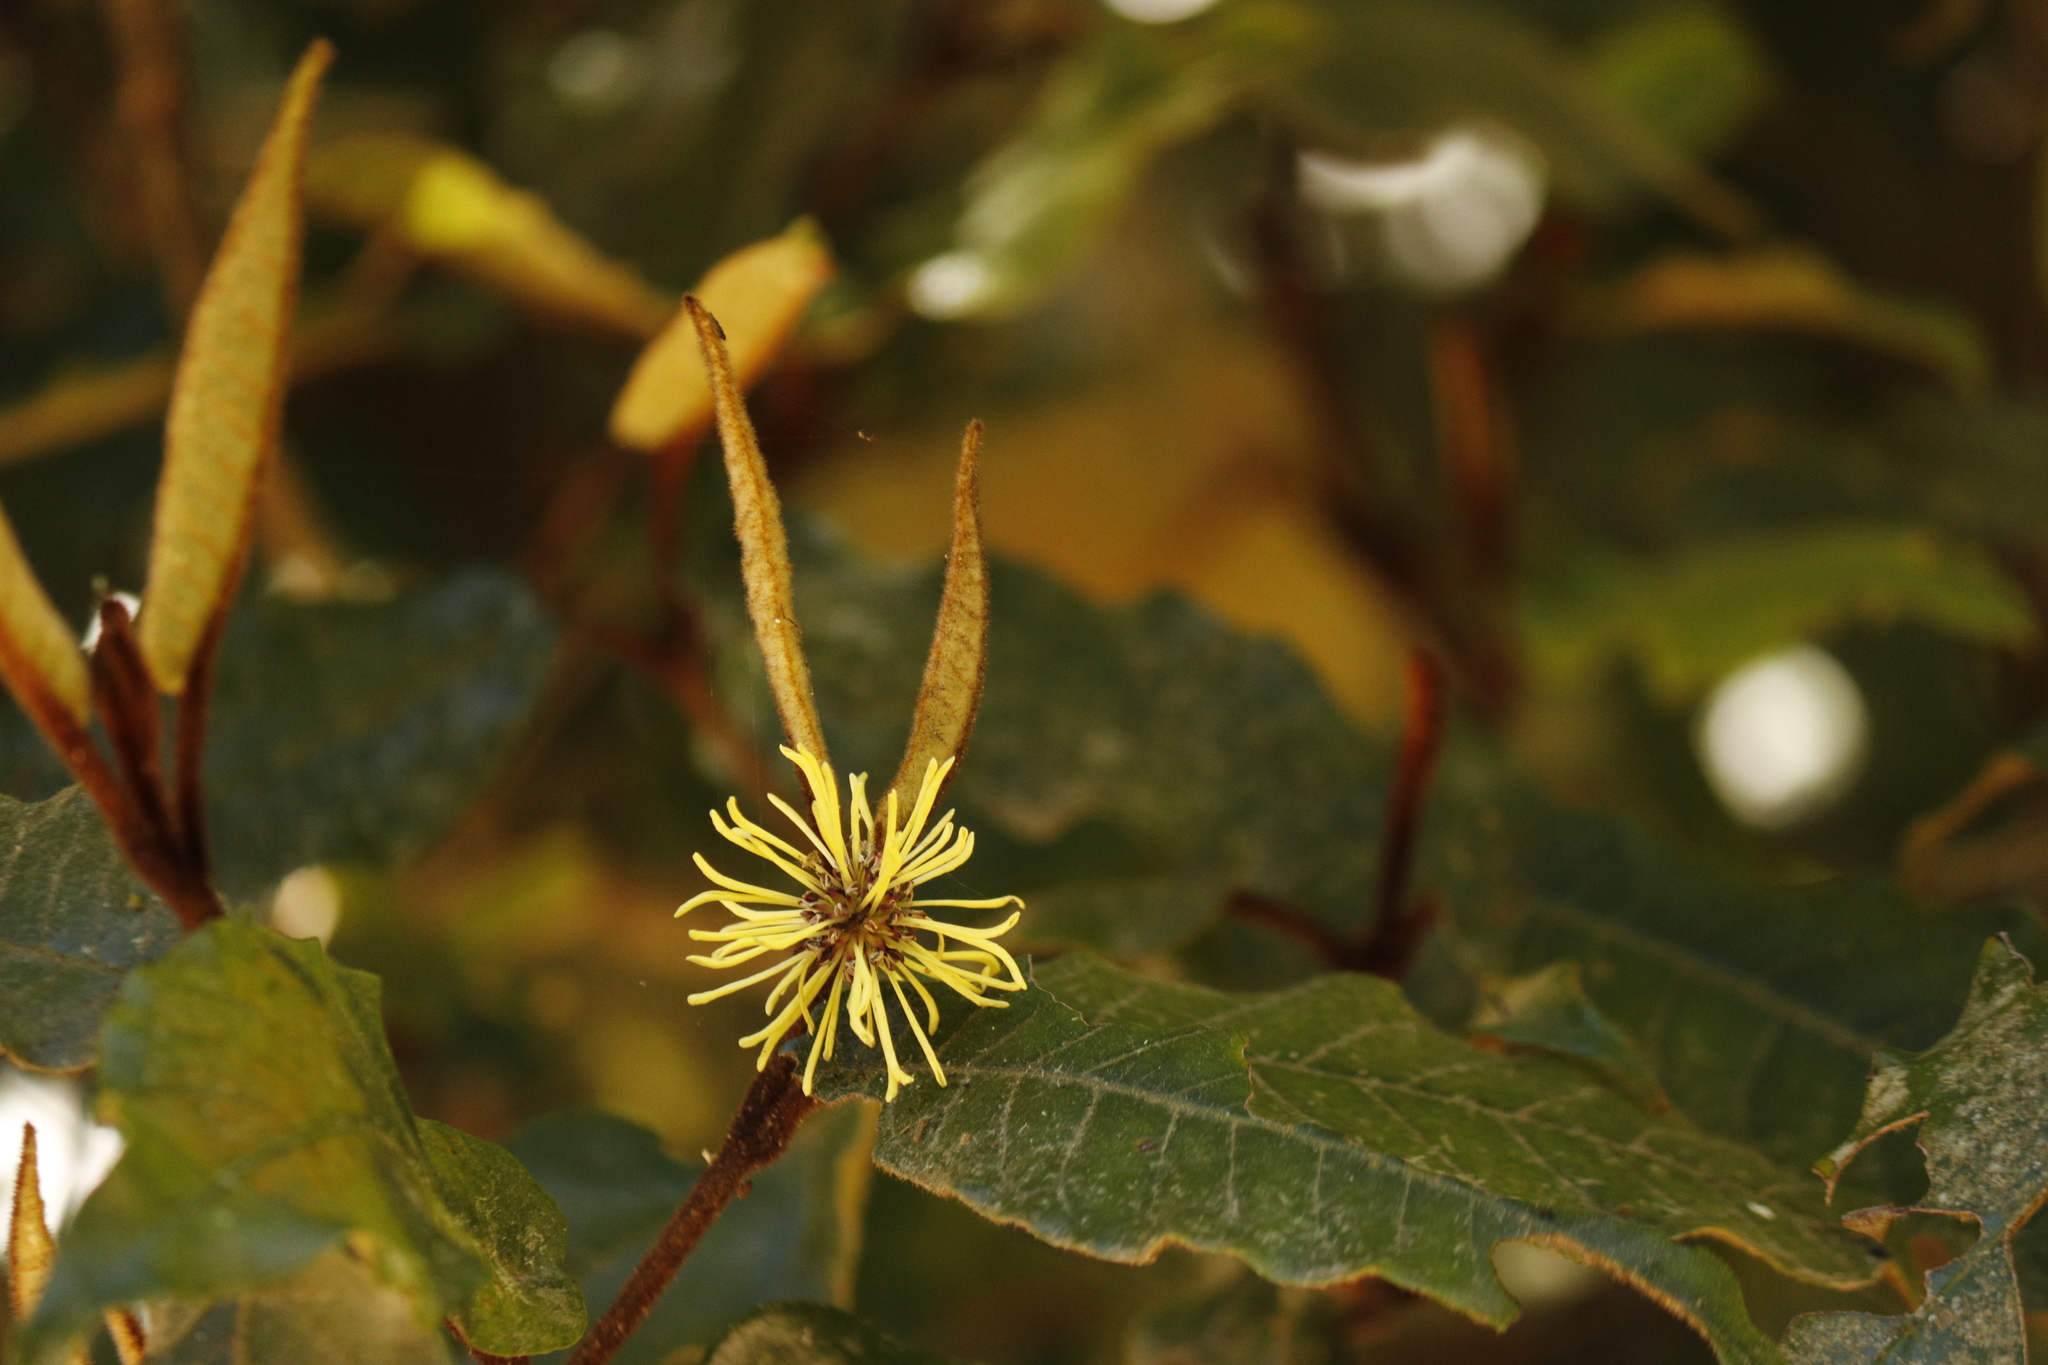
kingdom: Plantae
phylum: Tracheophyta
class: Magnoliopsida
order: Saxifragales
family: Hamamelidaceae
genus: Trichocladus
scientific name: Trichocladus crinitus
